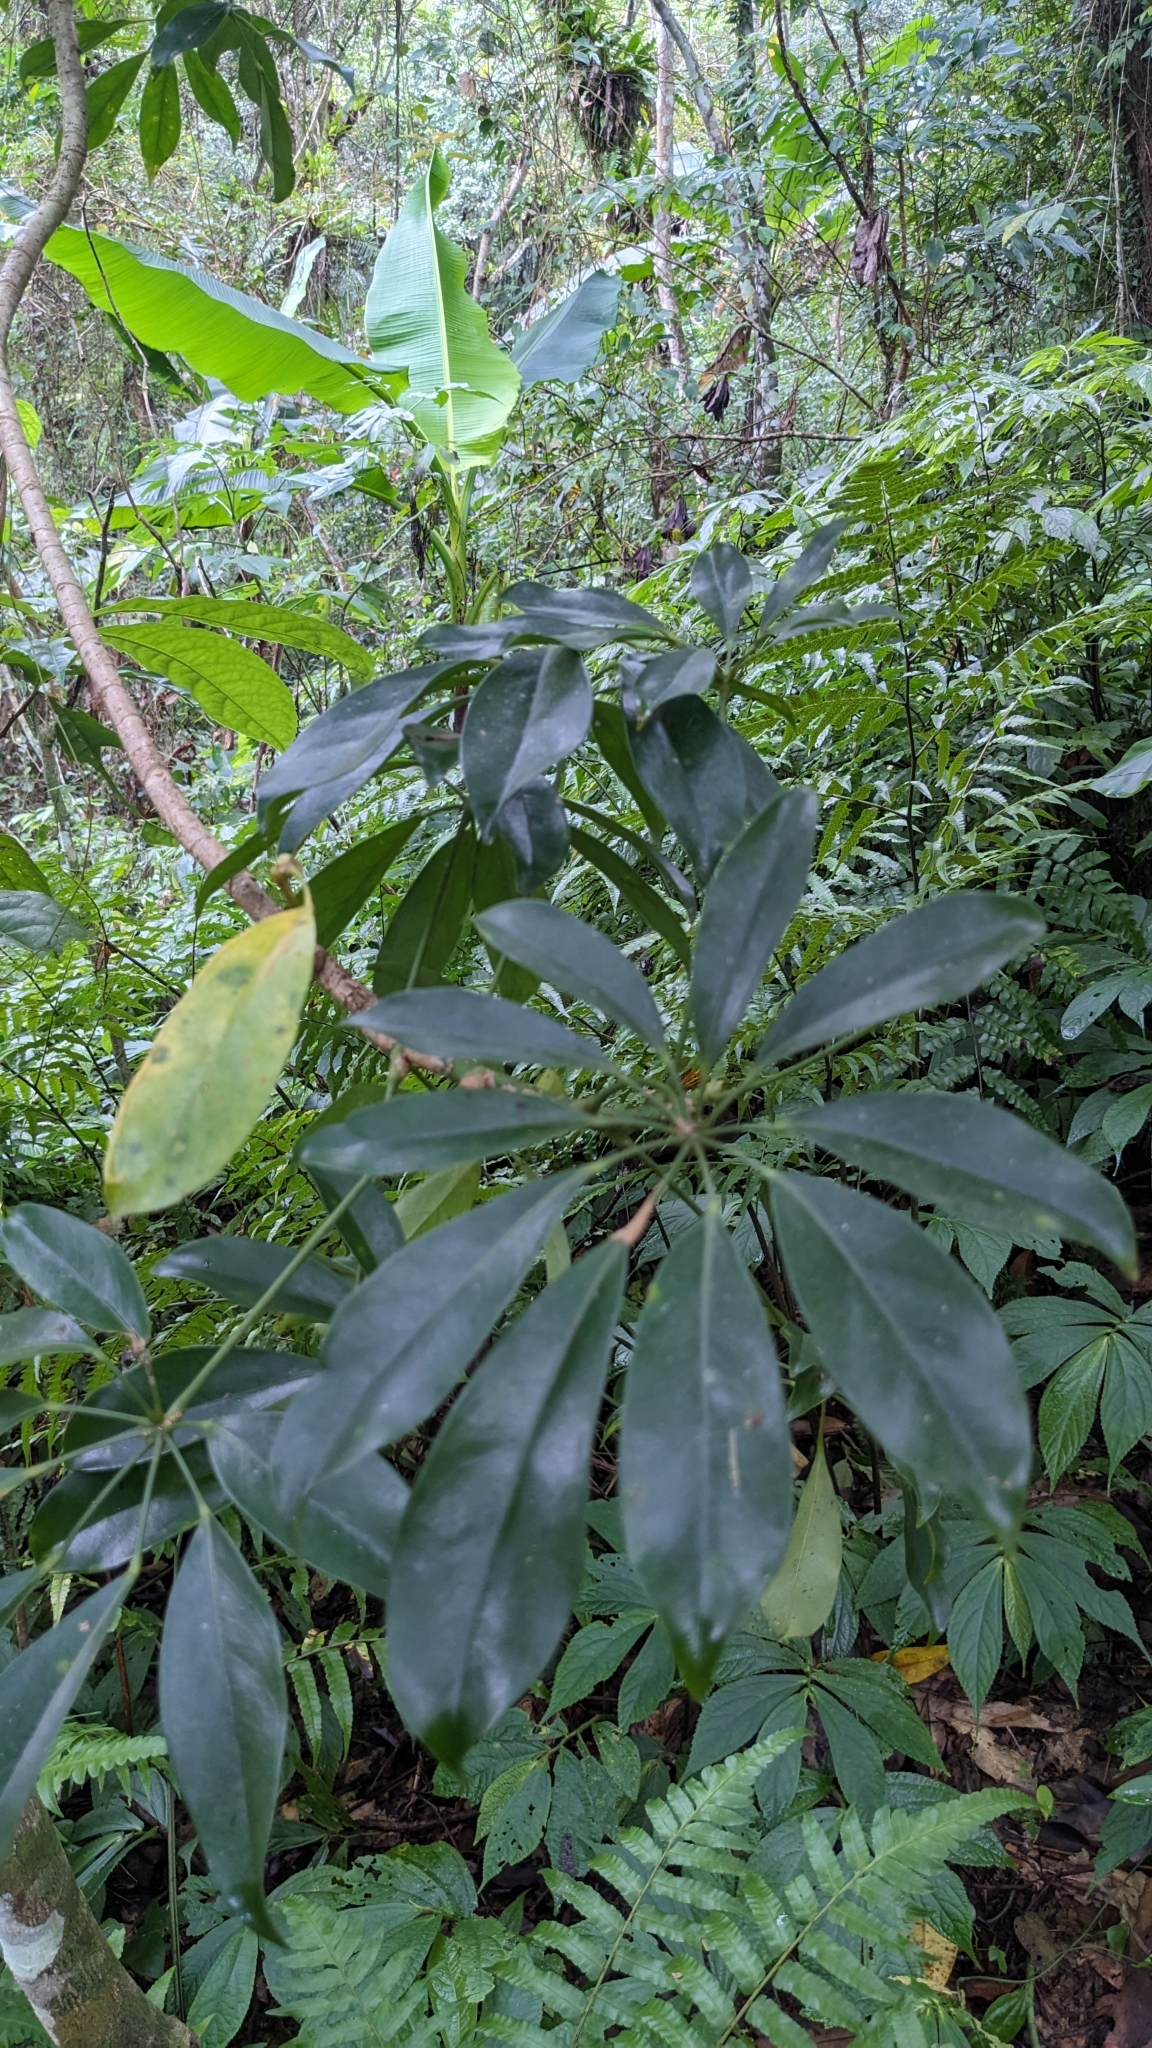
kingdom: Plantae
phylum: Tracheophyta
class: Magnoliopsida
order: Apiales
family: Araliaceae
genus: Heptapleurum
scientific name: Heptapleurum arboricola
